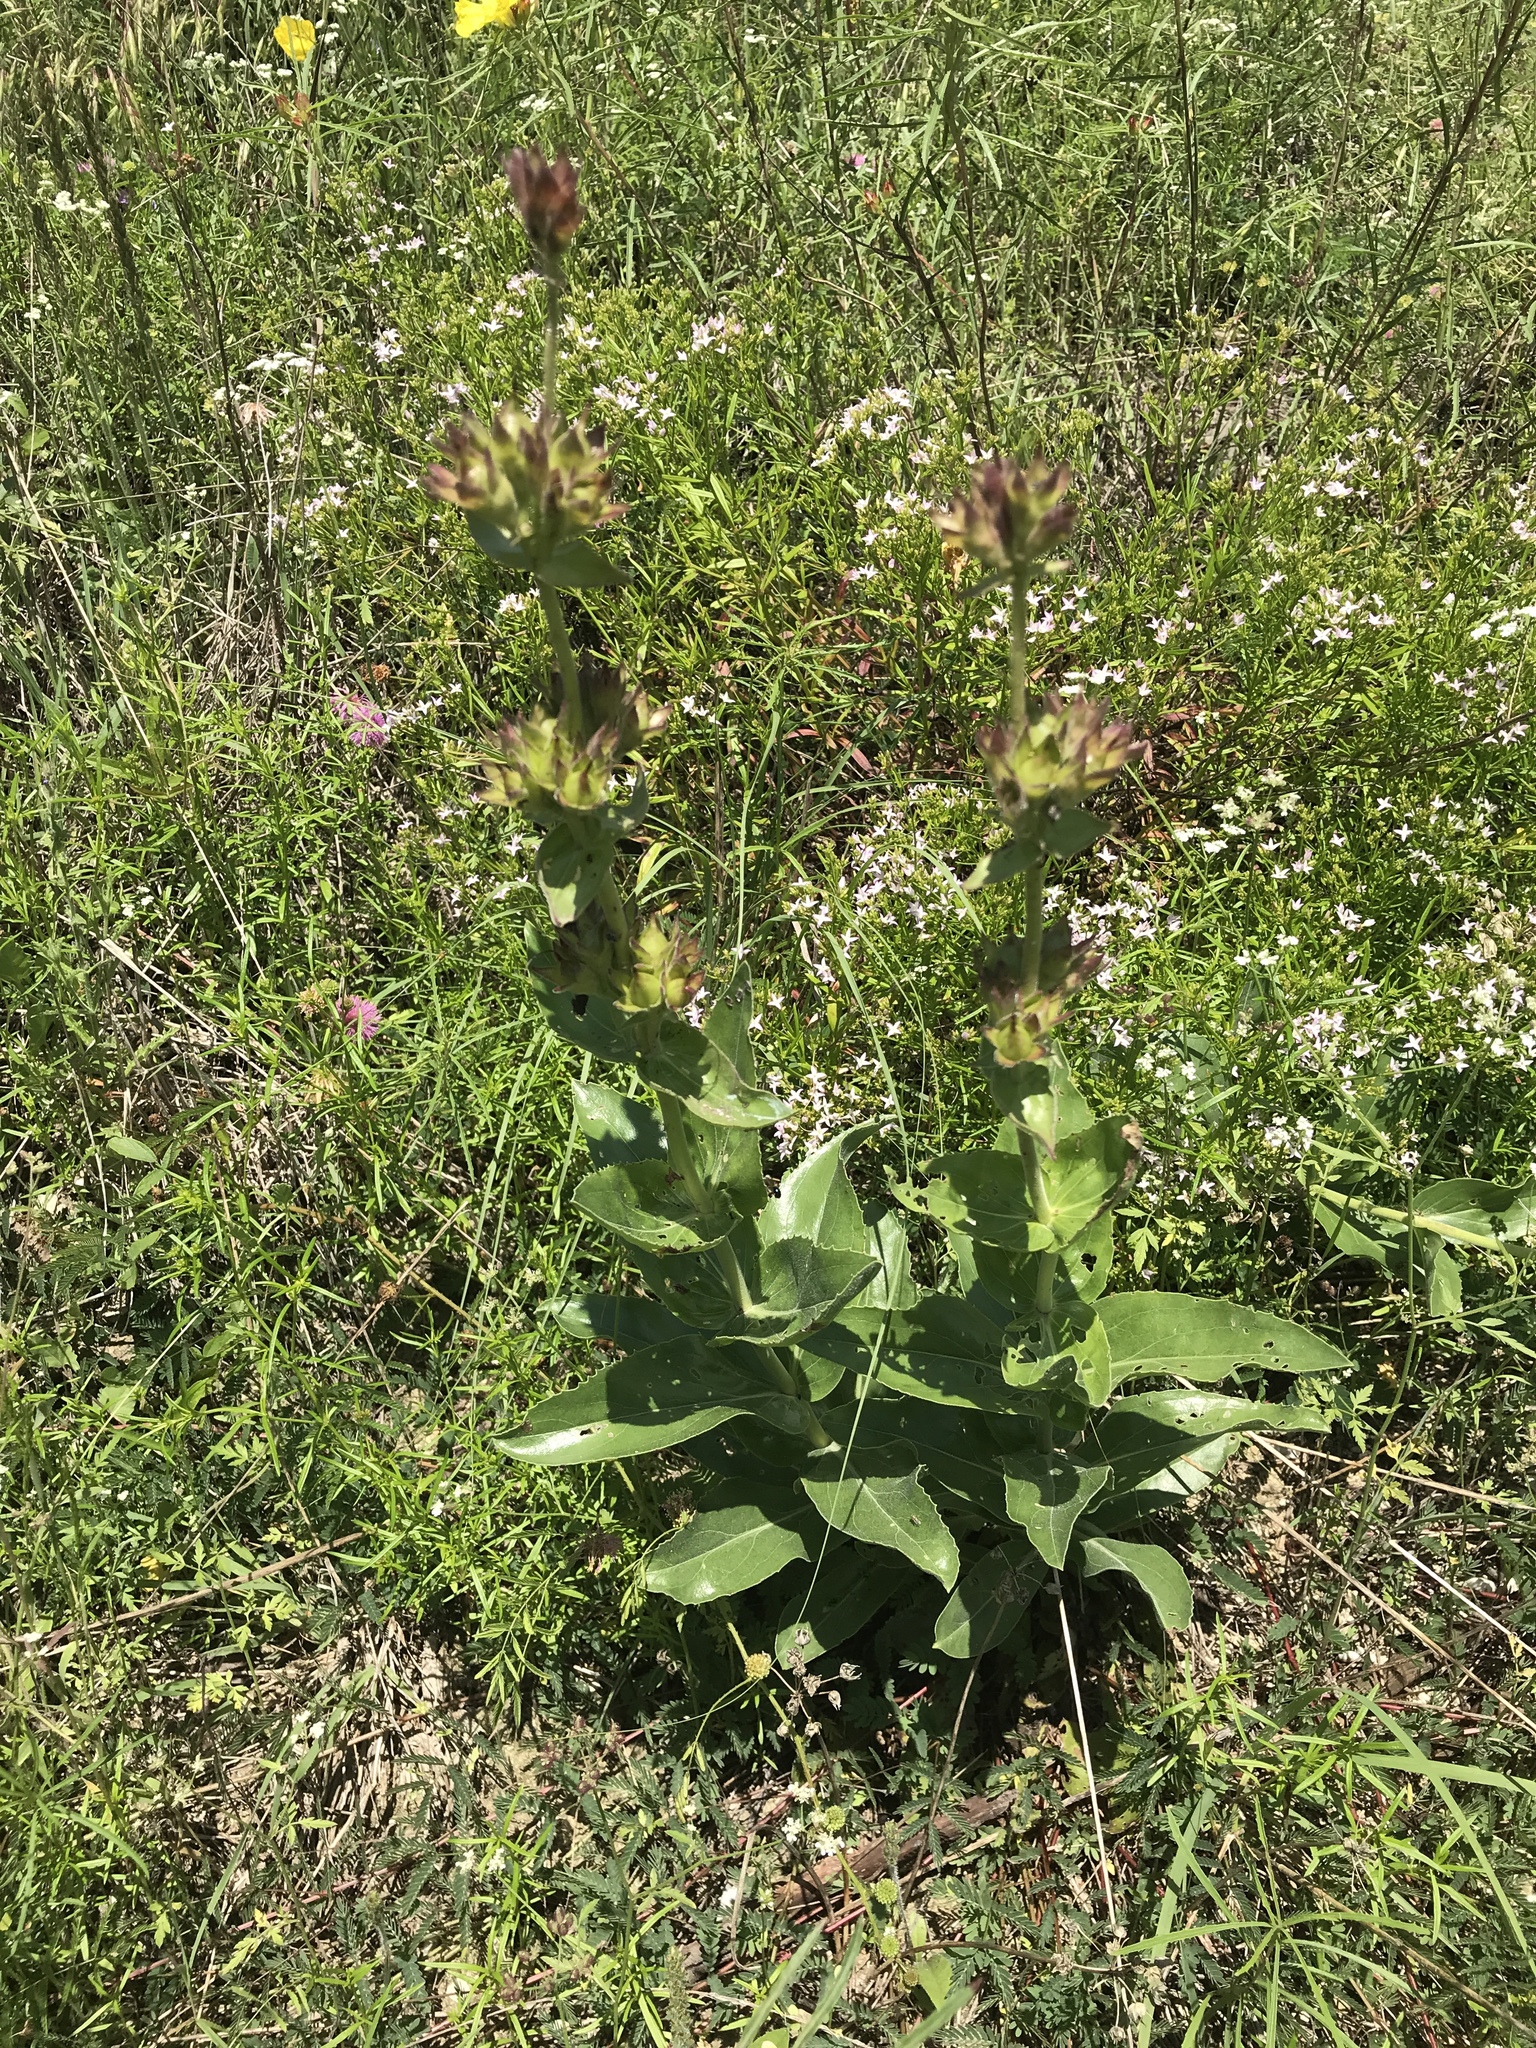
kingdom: Plantae
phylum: Tracheophyta
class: Magnoliopsida
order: Lamiales
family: Plantaginaceae
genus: Penstemon
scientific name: Penstemon cobaea
